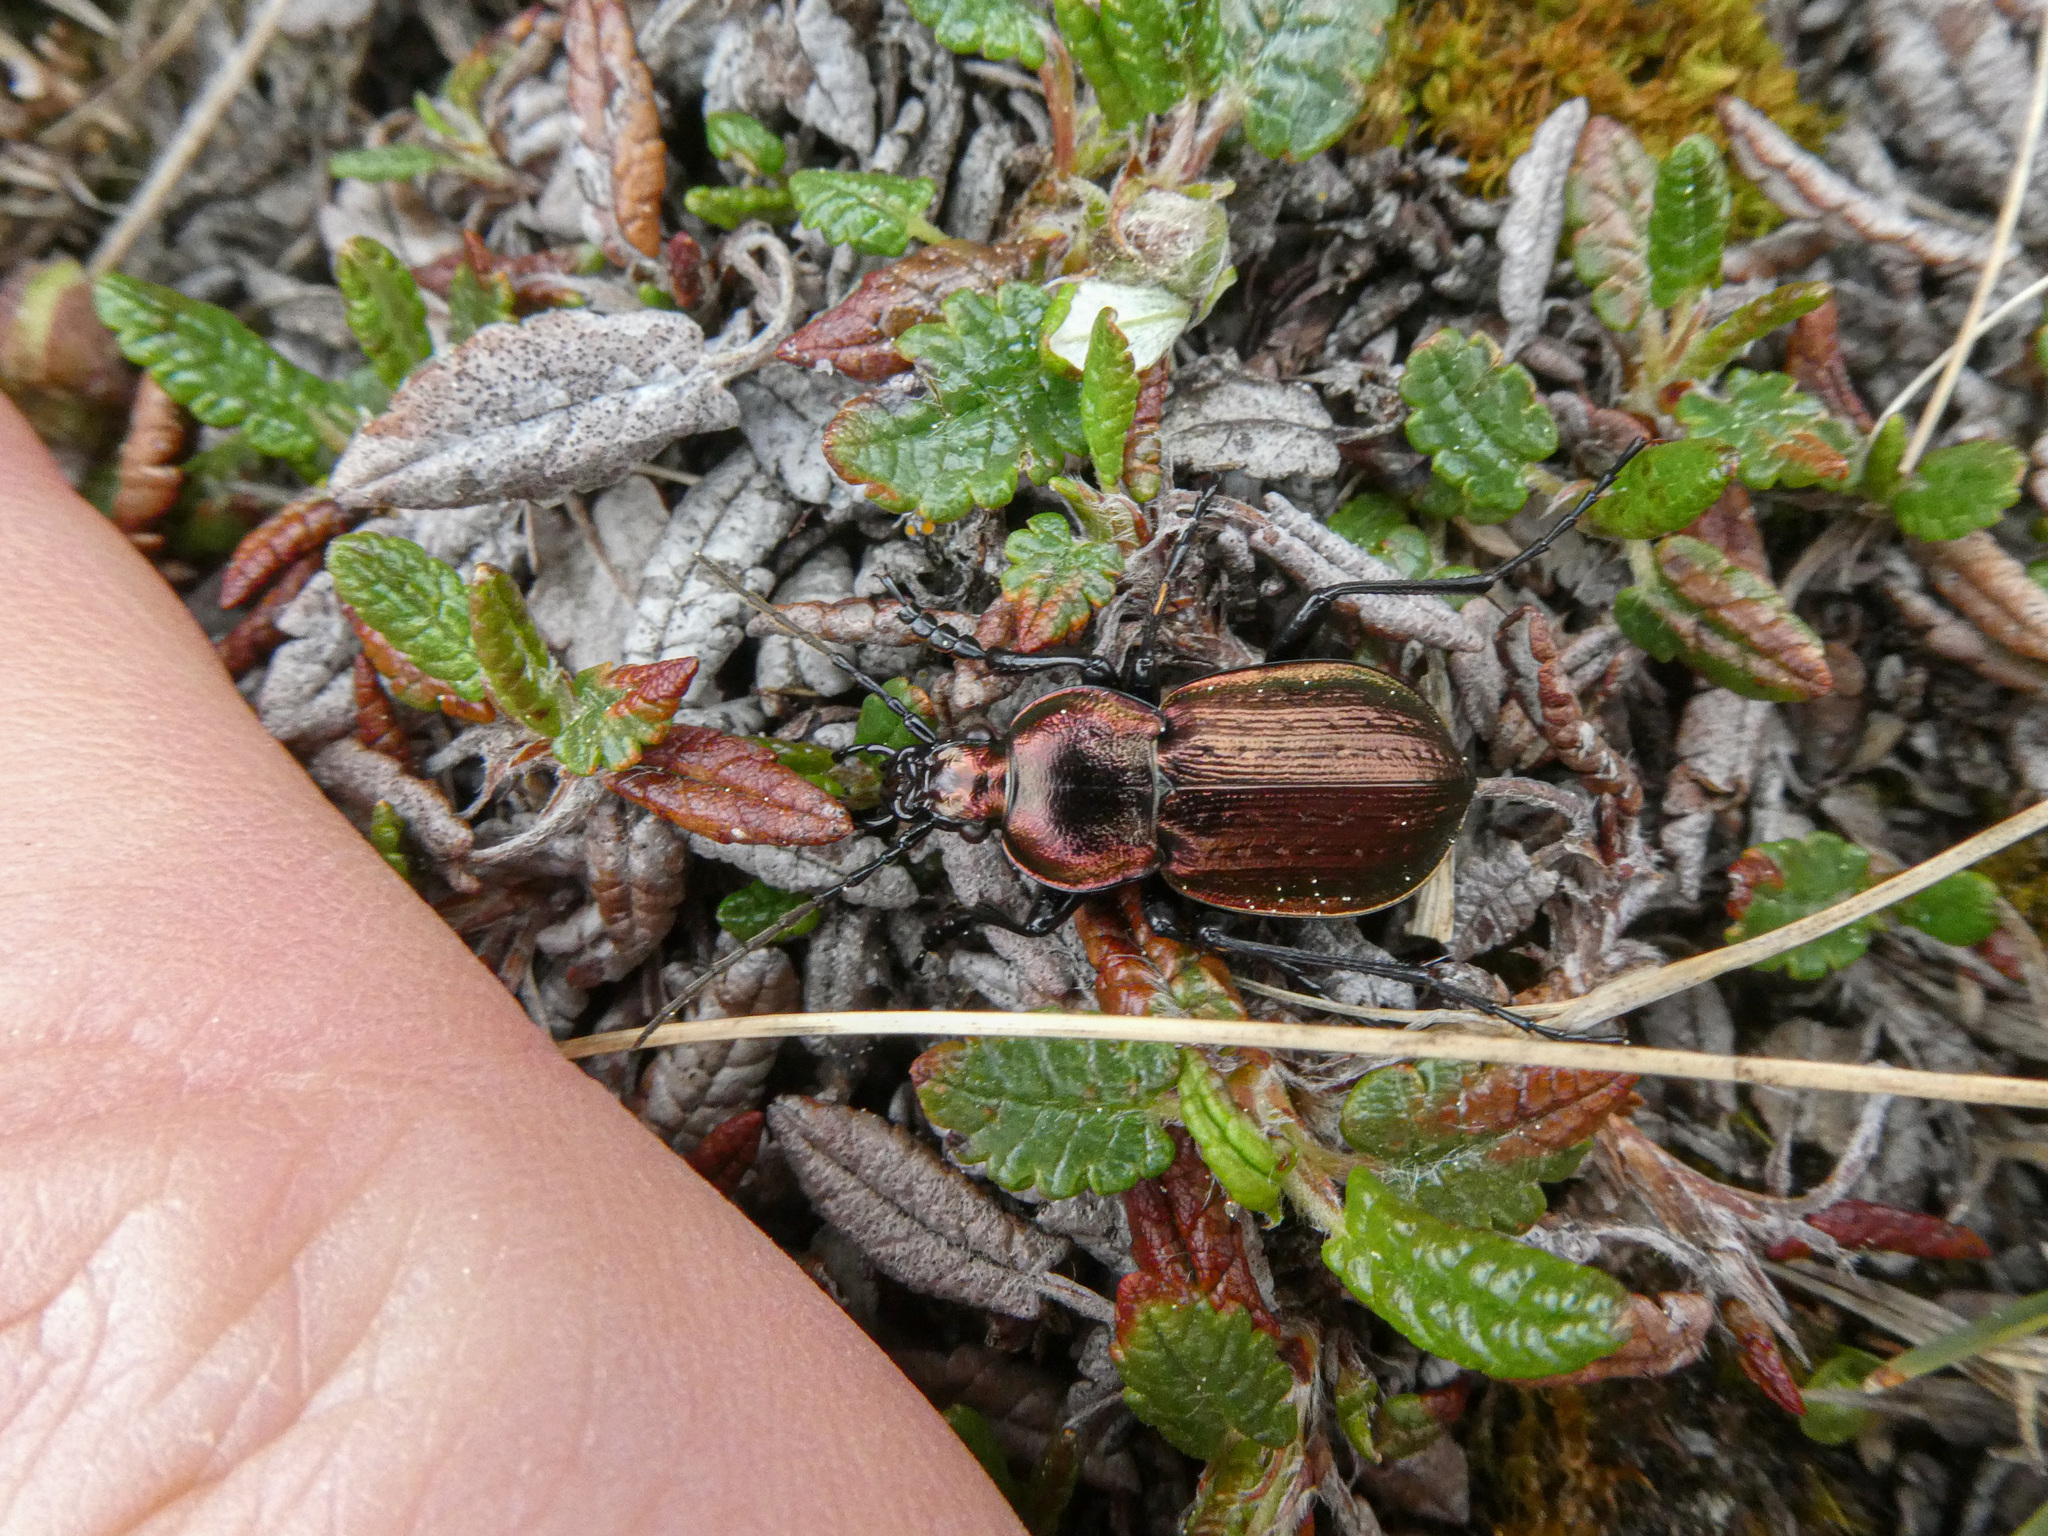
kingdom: Animalia
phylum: Arthropoda
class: Insecta
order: Coleoptera
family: Carabidae
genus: Carabus
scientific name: Carabus arvensis
